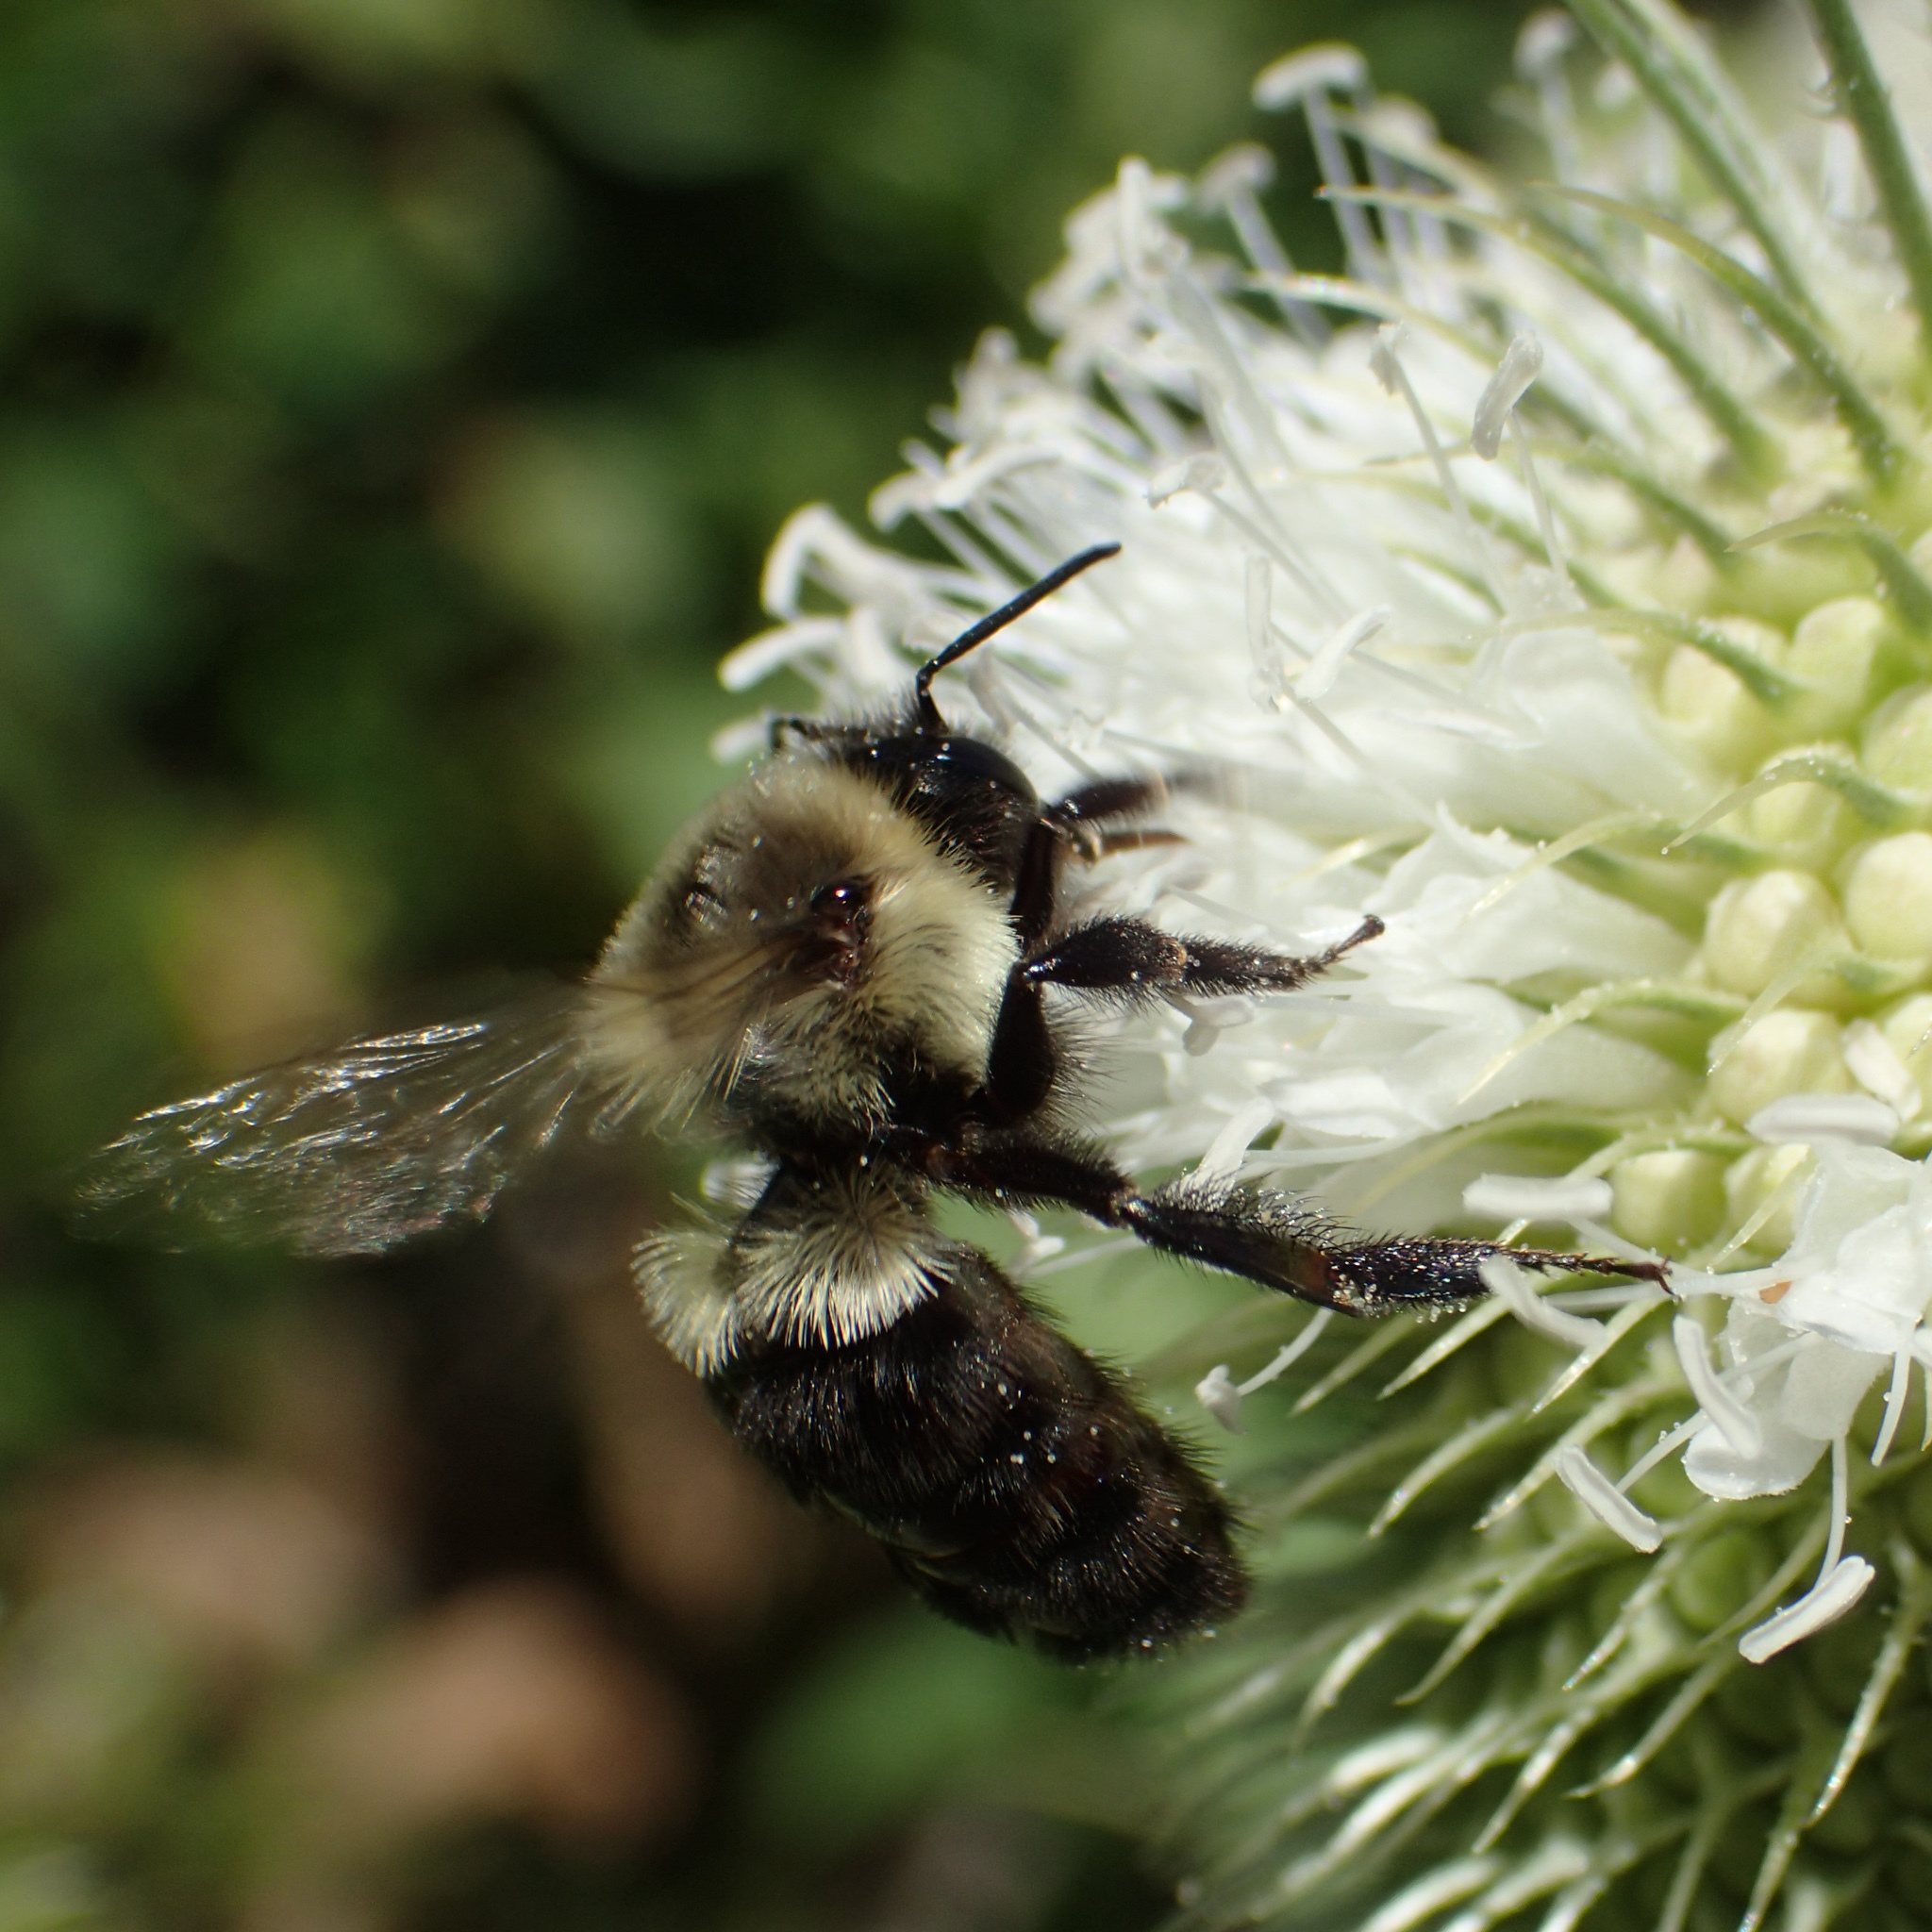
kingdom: Animalia
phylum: Arthropoda
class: Insecta
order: Hymenoptera
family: Apidae
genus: Bombus
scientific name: Bombus impatiens
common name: Common eastern bumble bee
